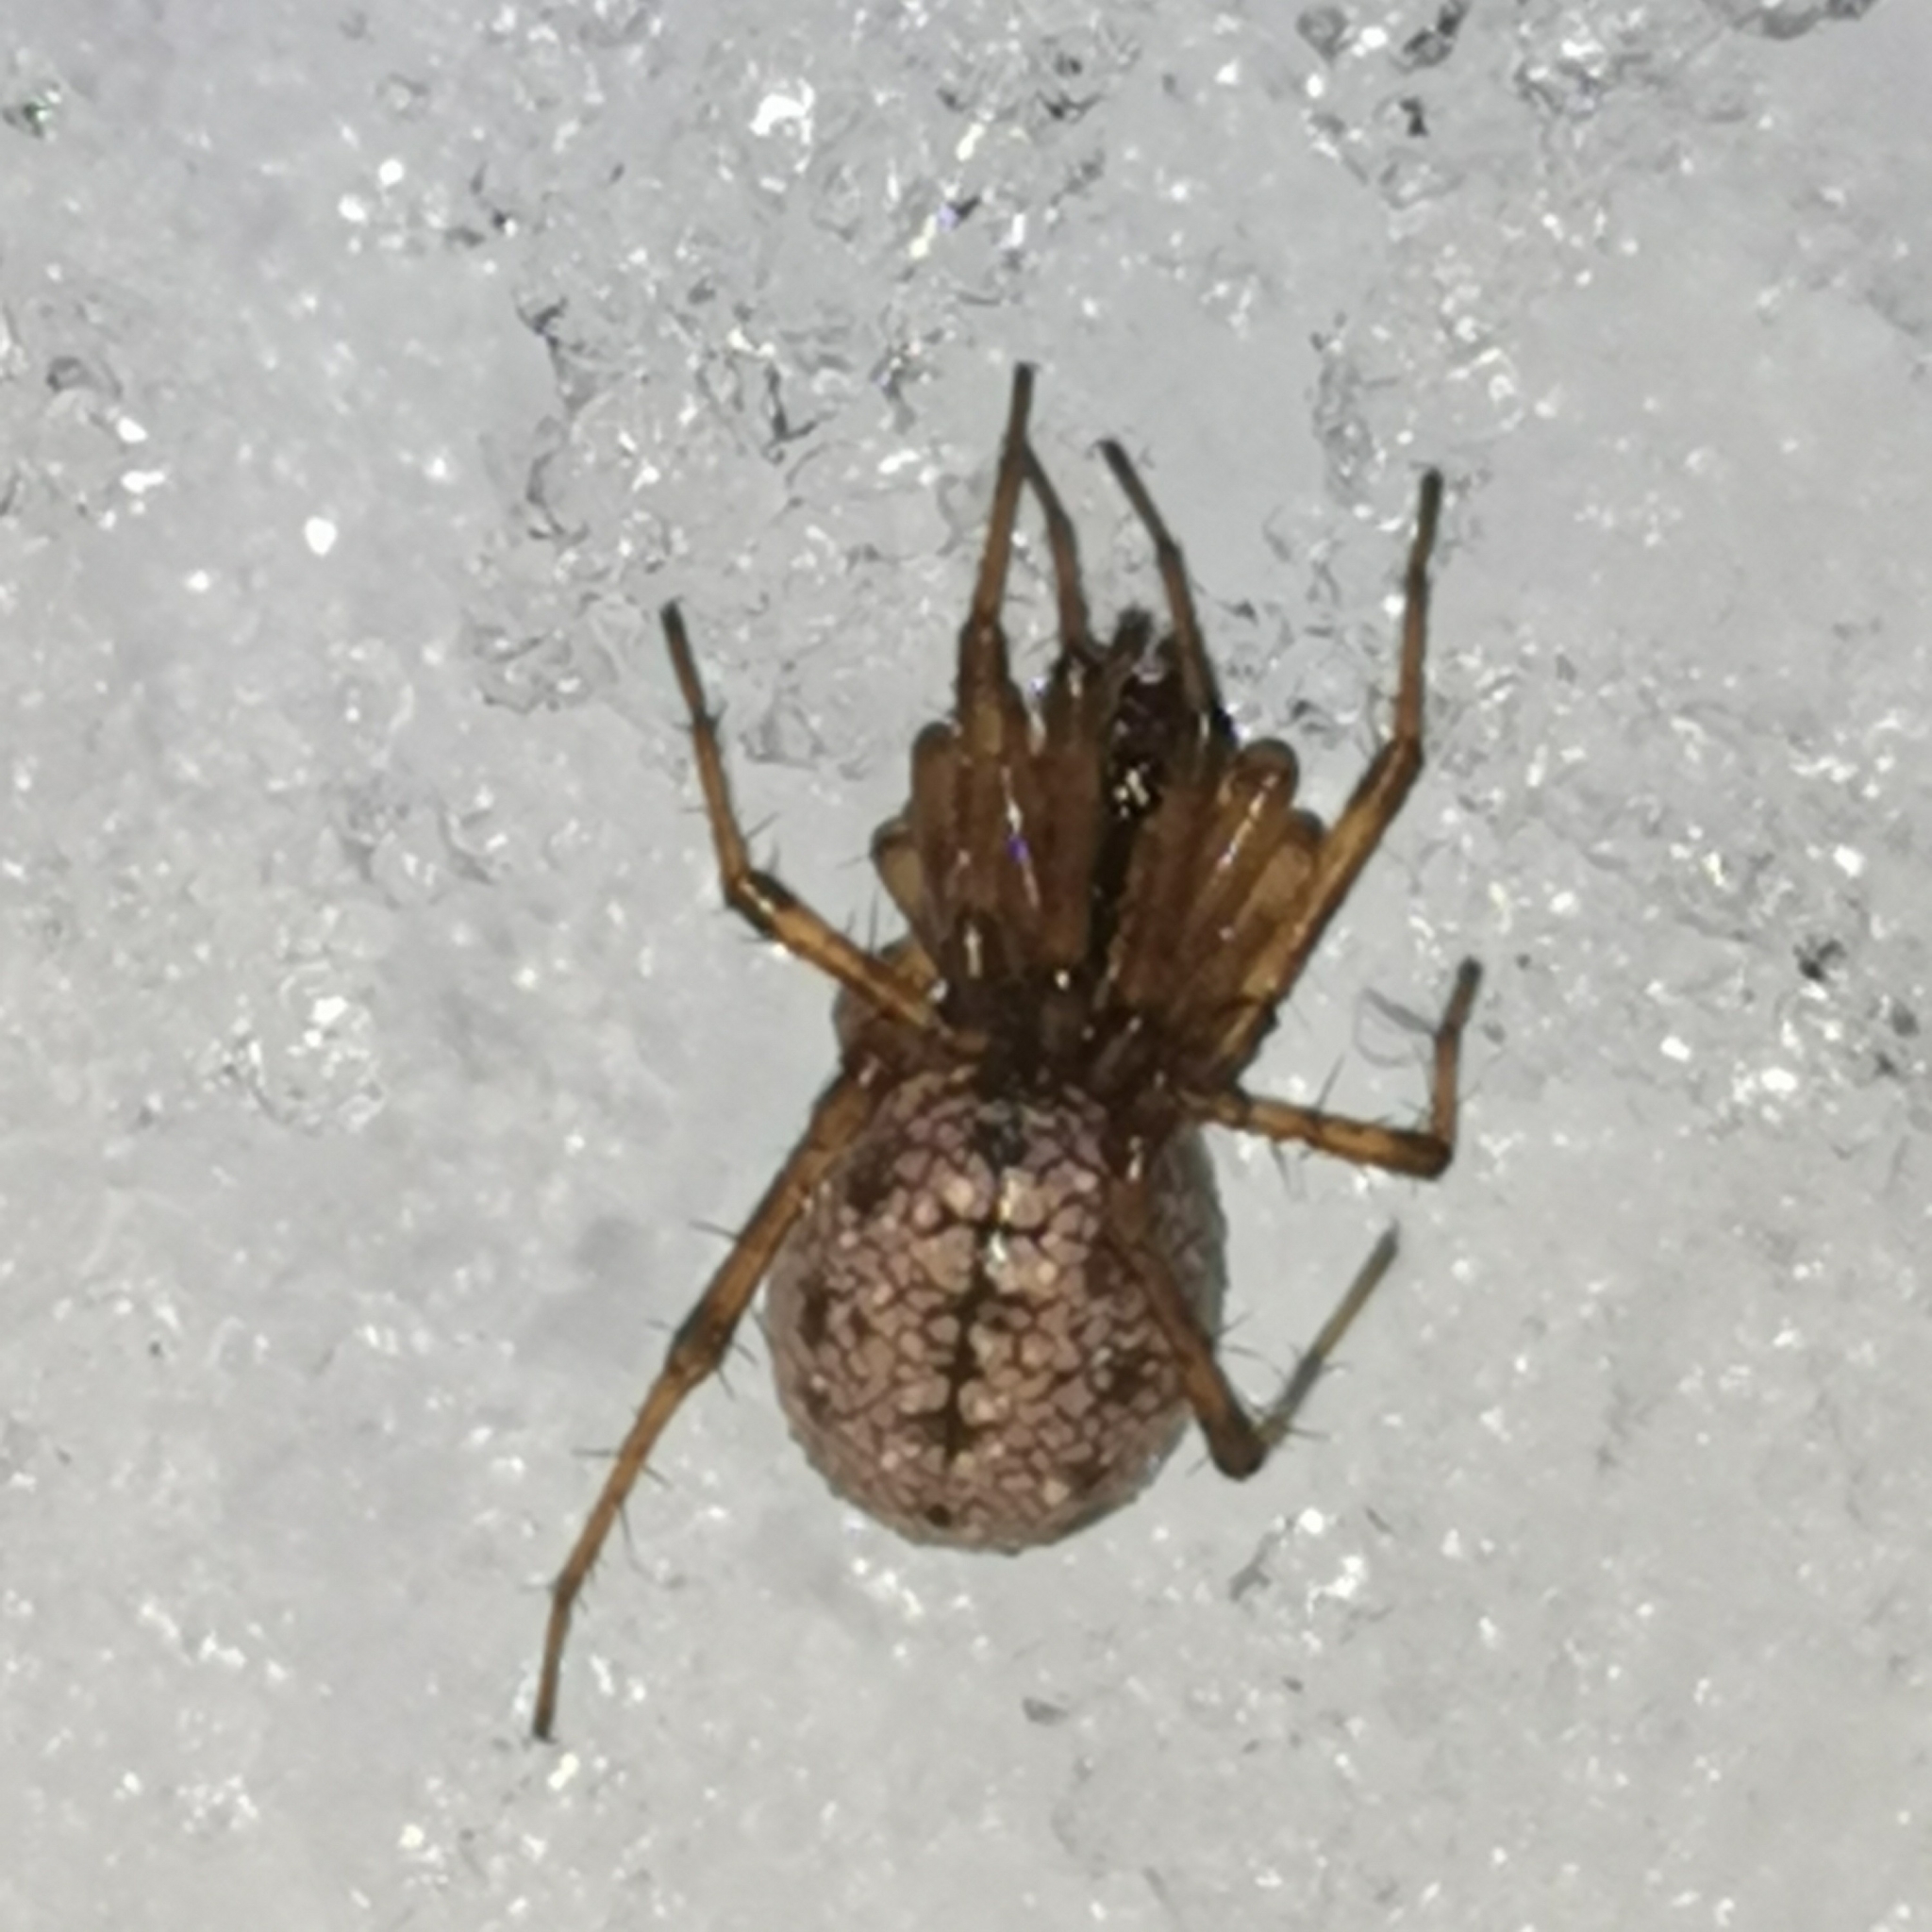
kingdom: Animalia
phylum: Arthropoda
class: Arachnida
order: Araneae
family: Linyphiidae
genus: Stemonyphantes
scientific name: Stemonyphantes lineatus
